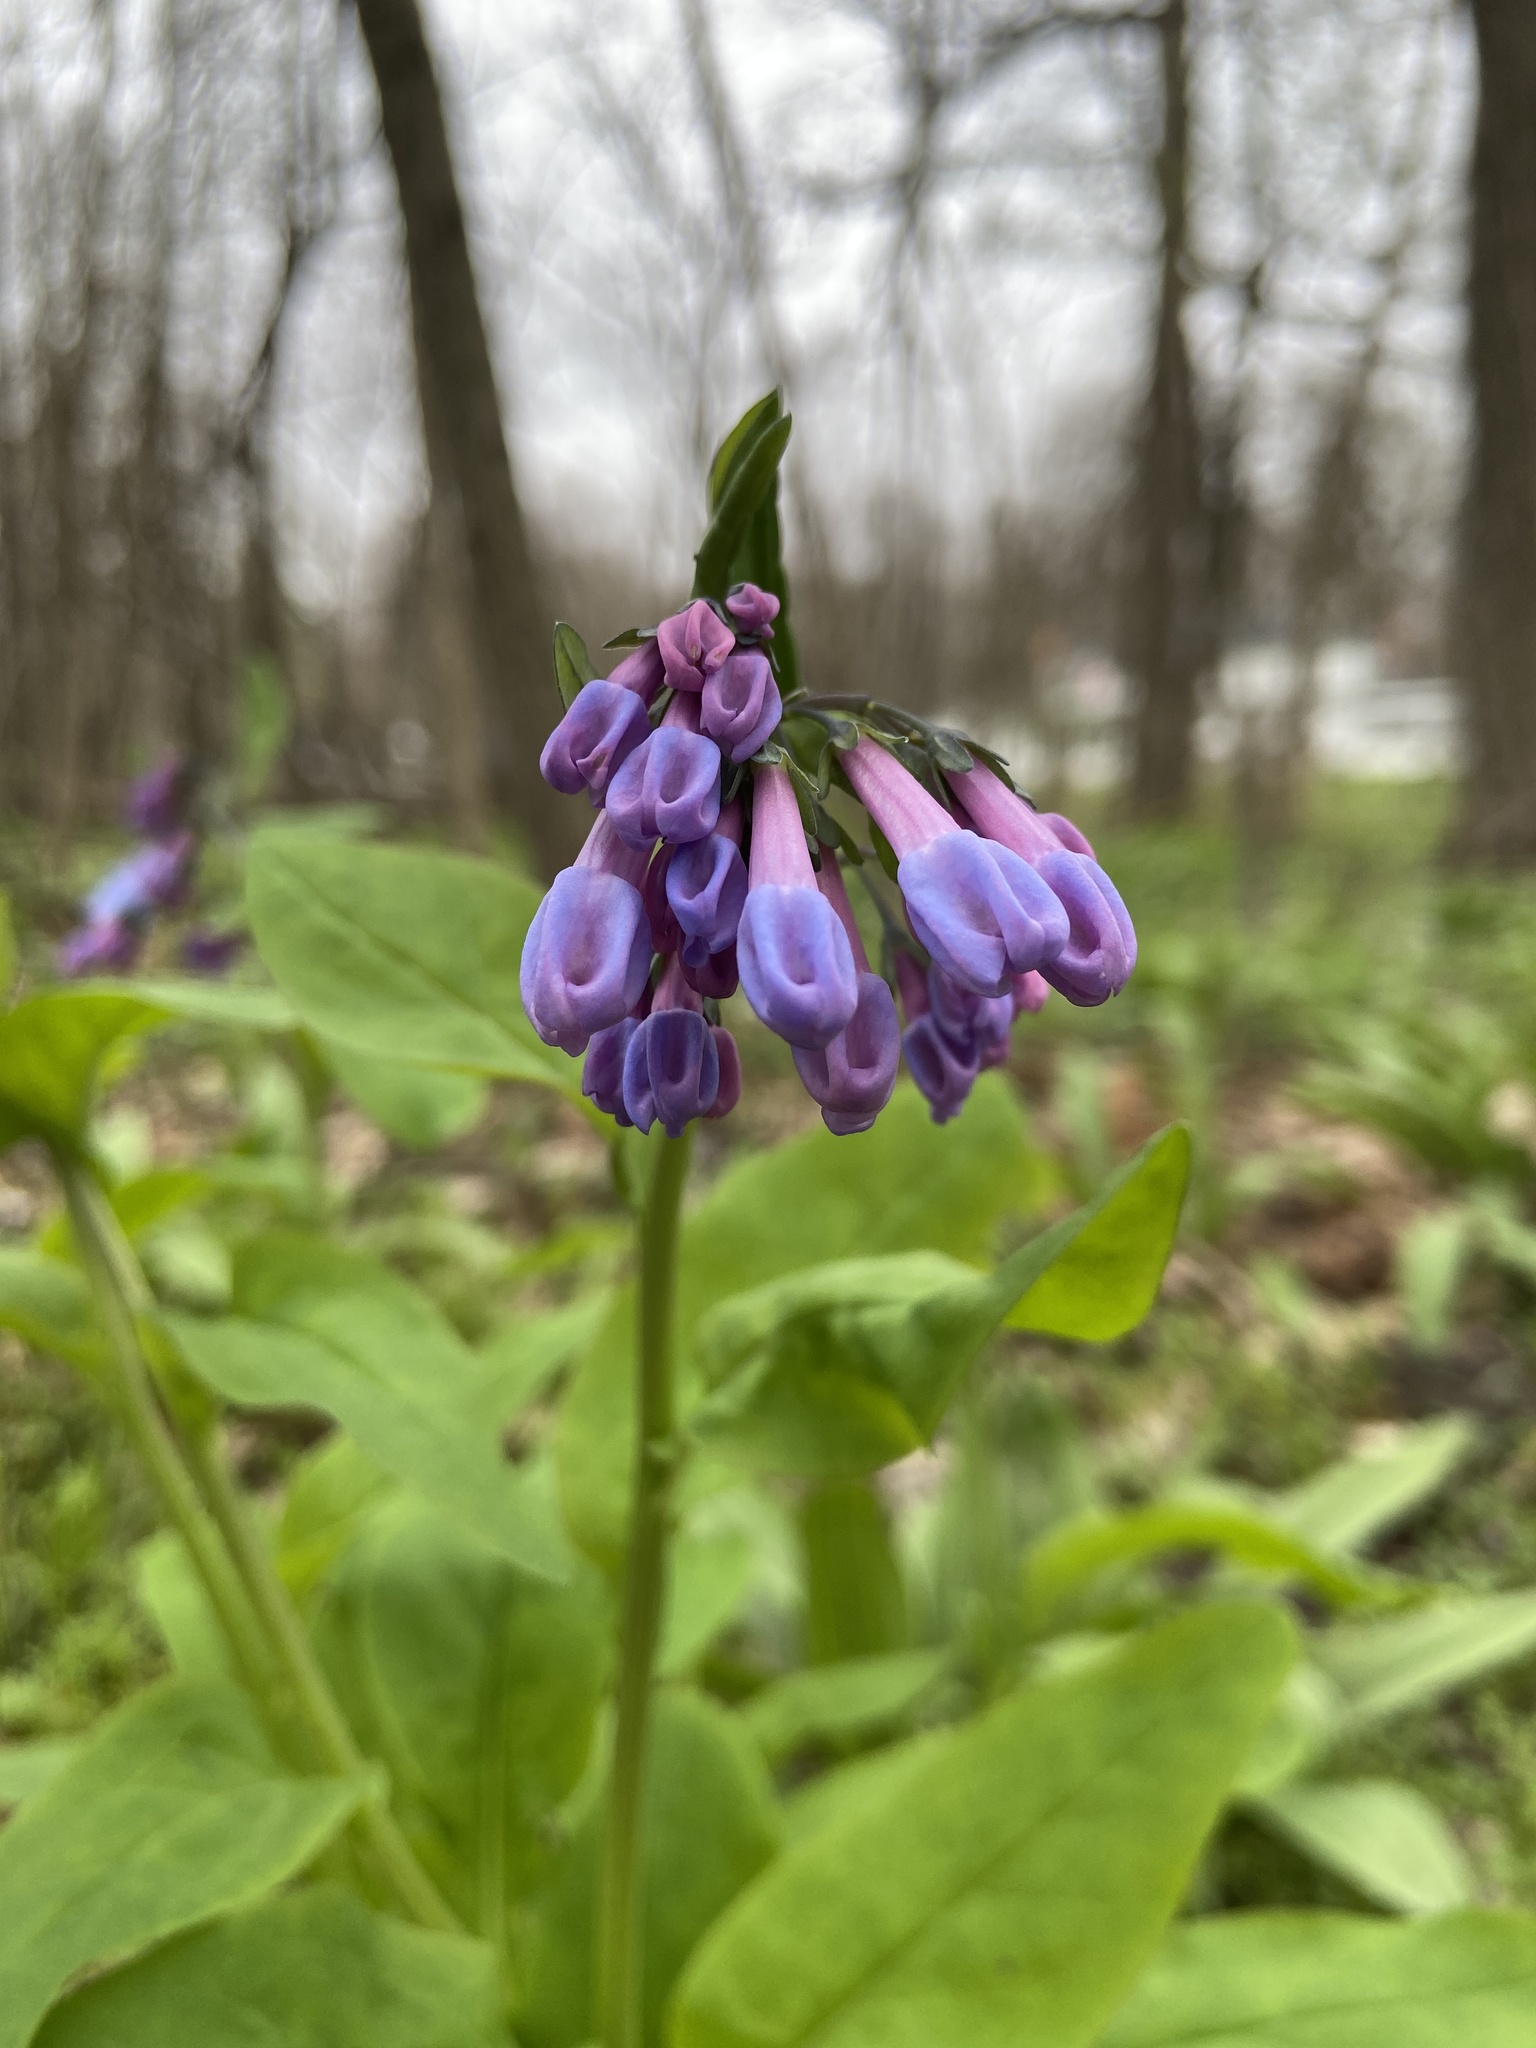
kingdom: Plantae
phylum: Tracheophyta
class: Magnoliopsida
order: Boraginales
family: Boraginaceae
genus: Mertensia
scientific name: Mertensia virginica
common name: Virginia bluebells
